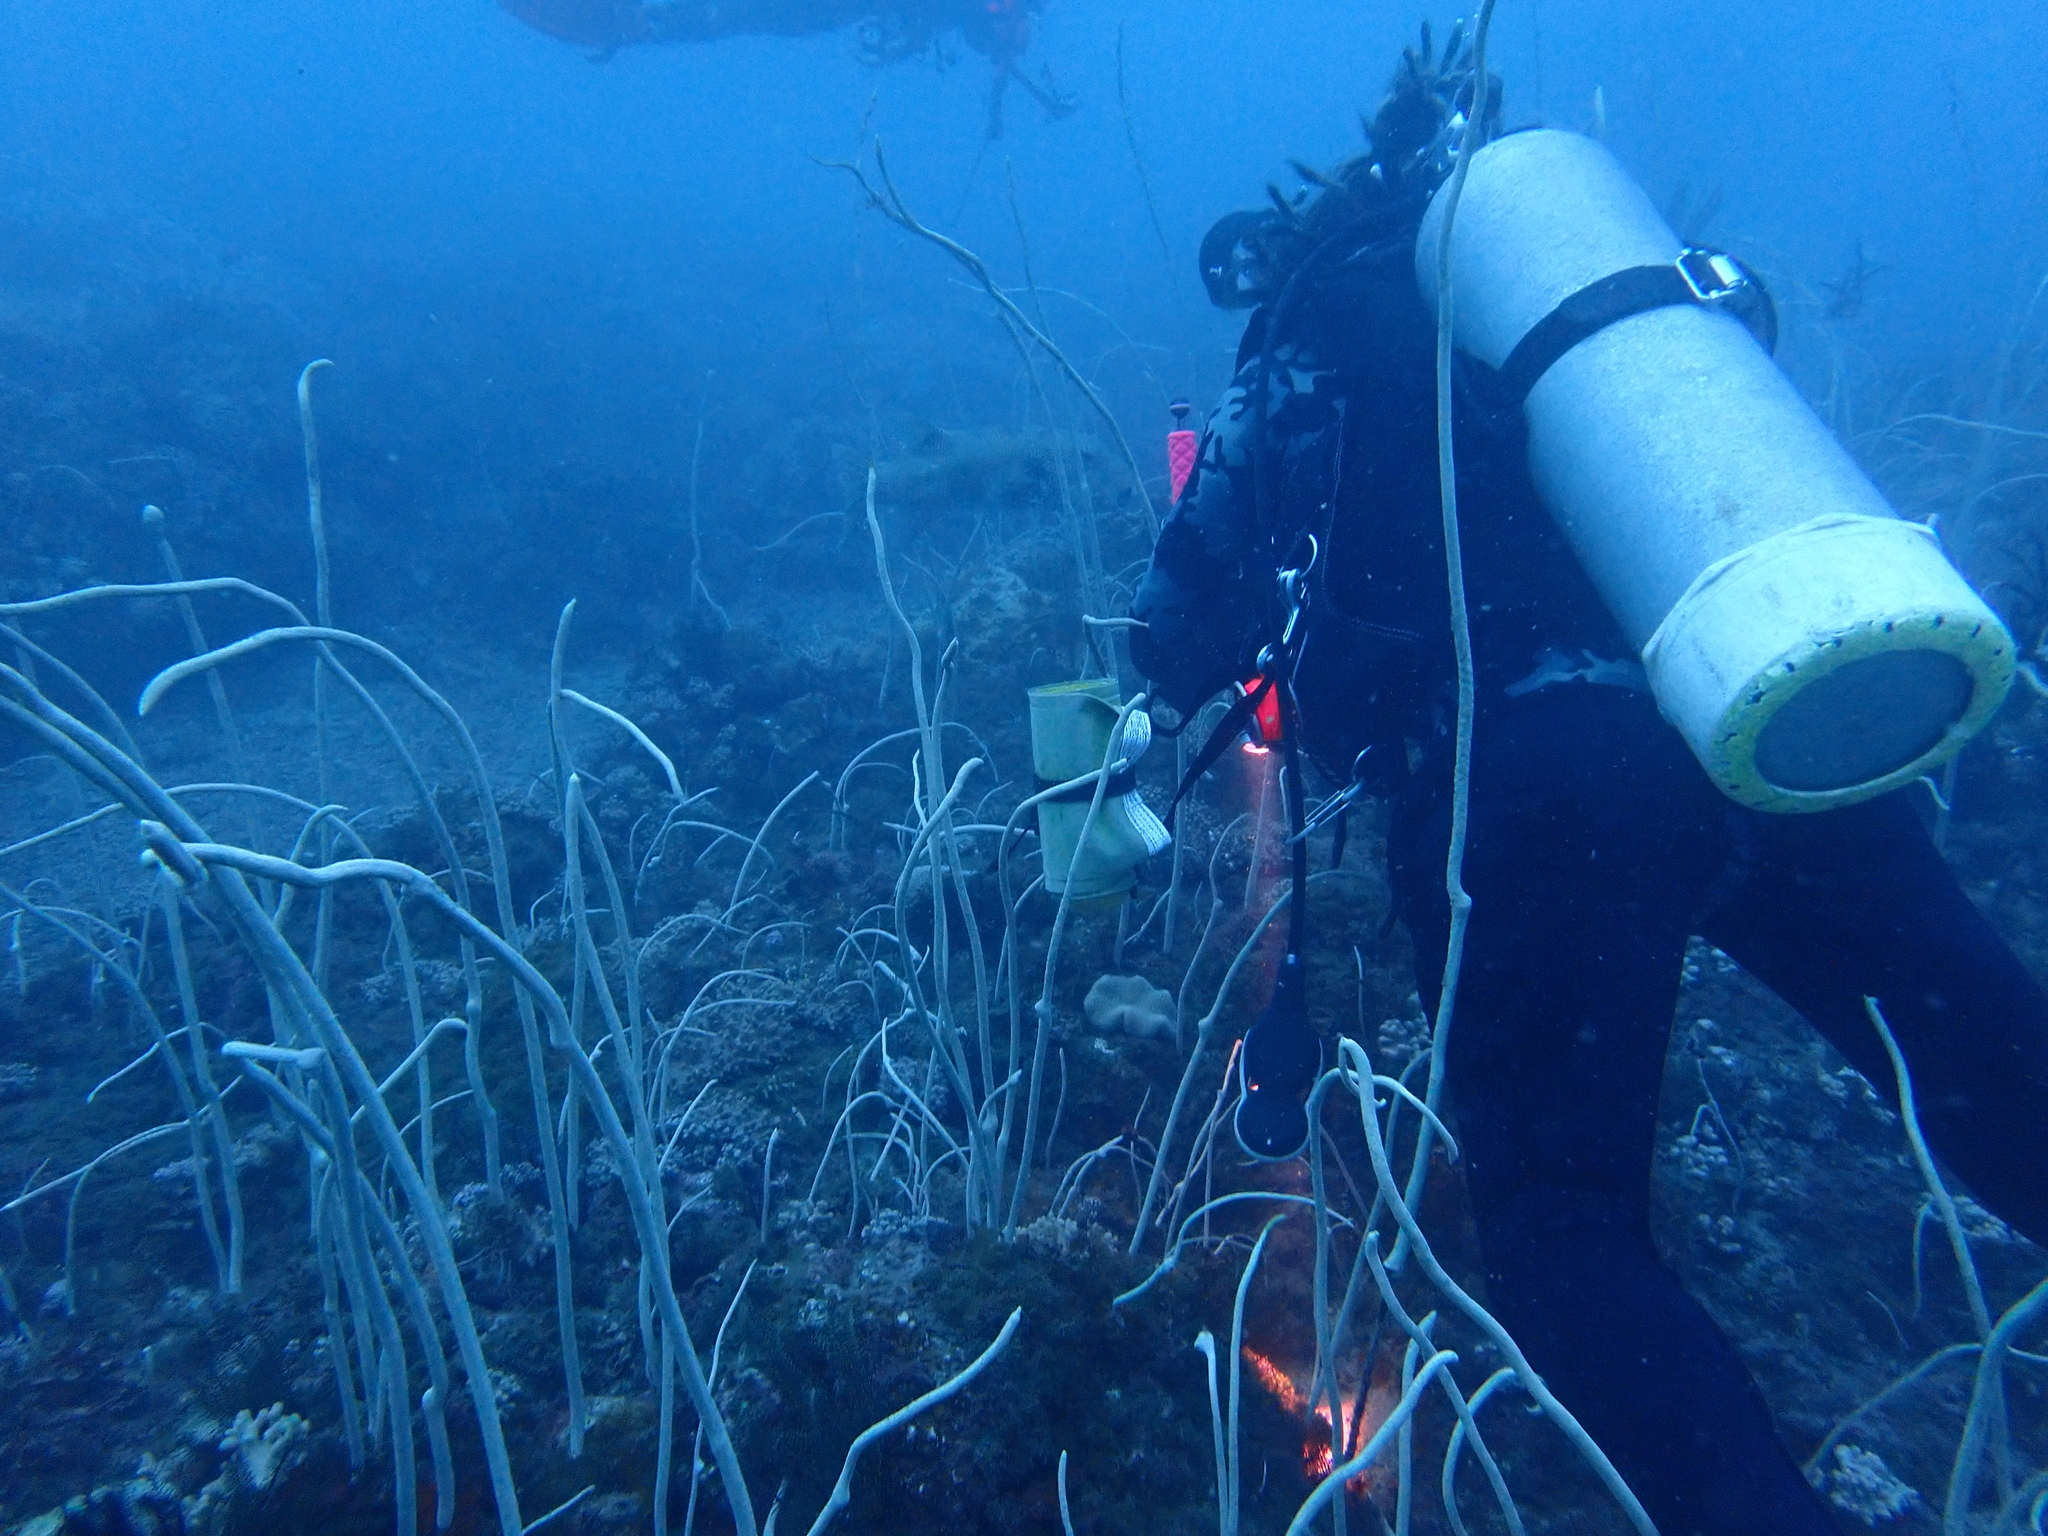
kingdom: Animalia
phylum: Cnidaria
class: Anthozoa
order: Scleralcyonacea
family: Ellisellidae
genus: Junceella
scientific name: Junceella fragilis
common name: Fragile sea whip
